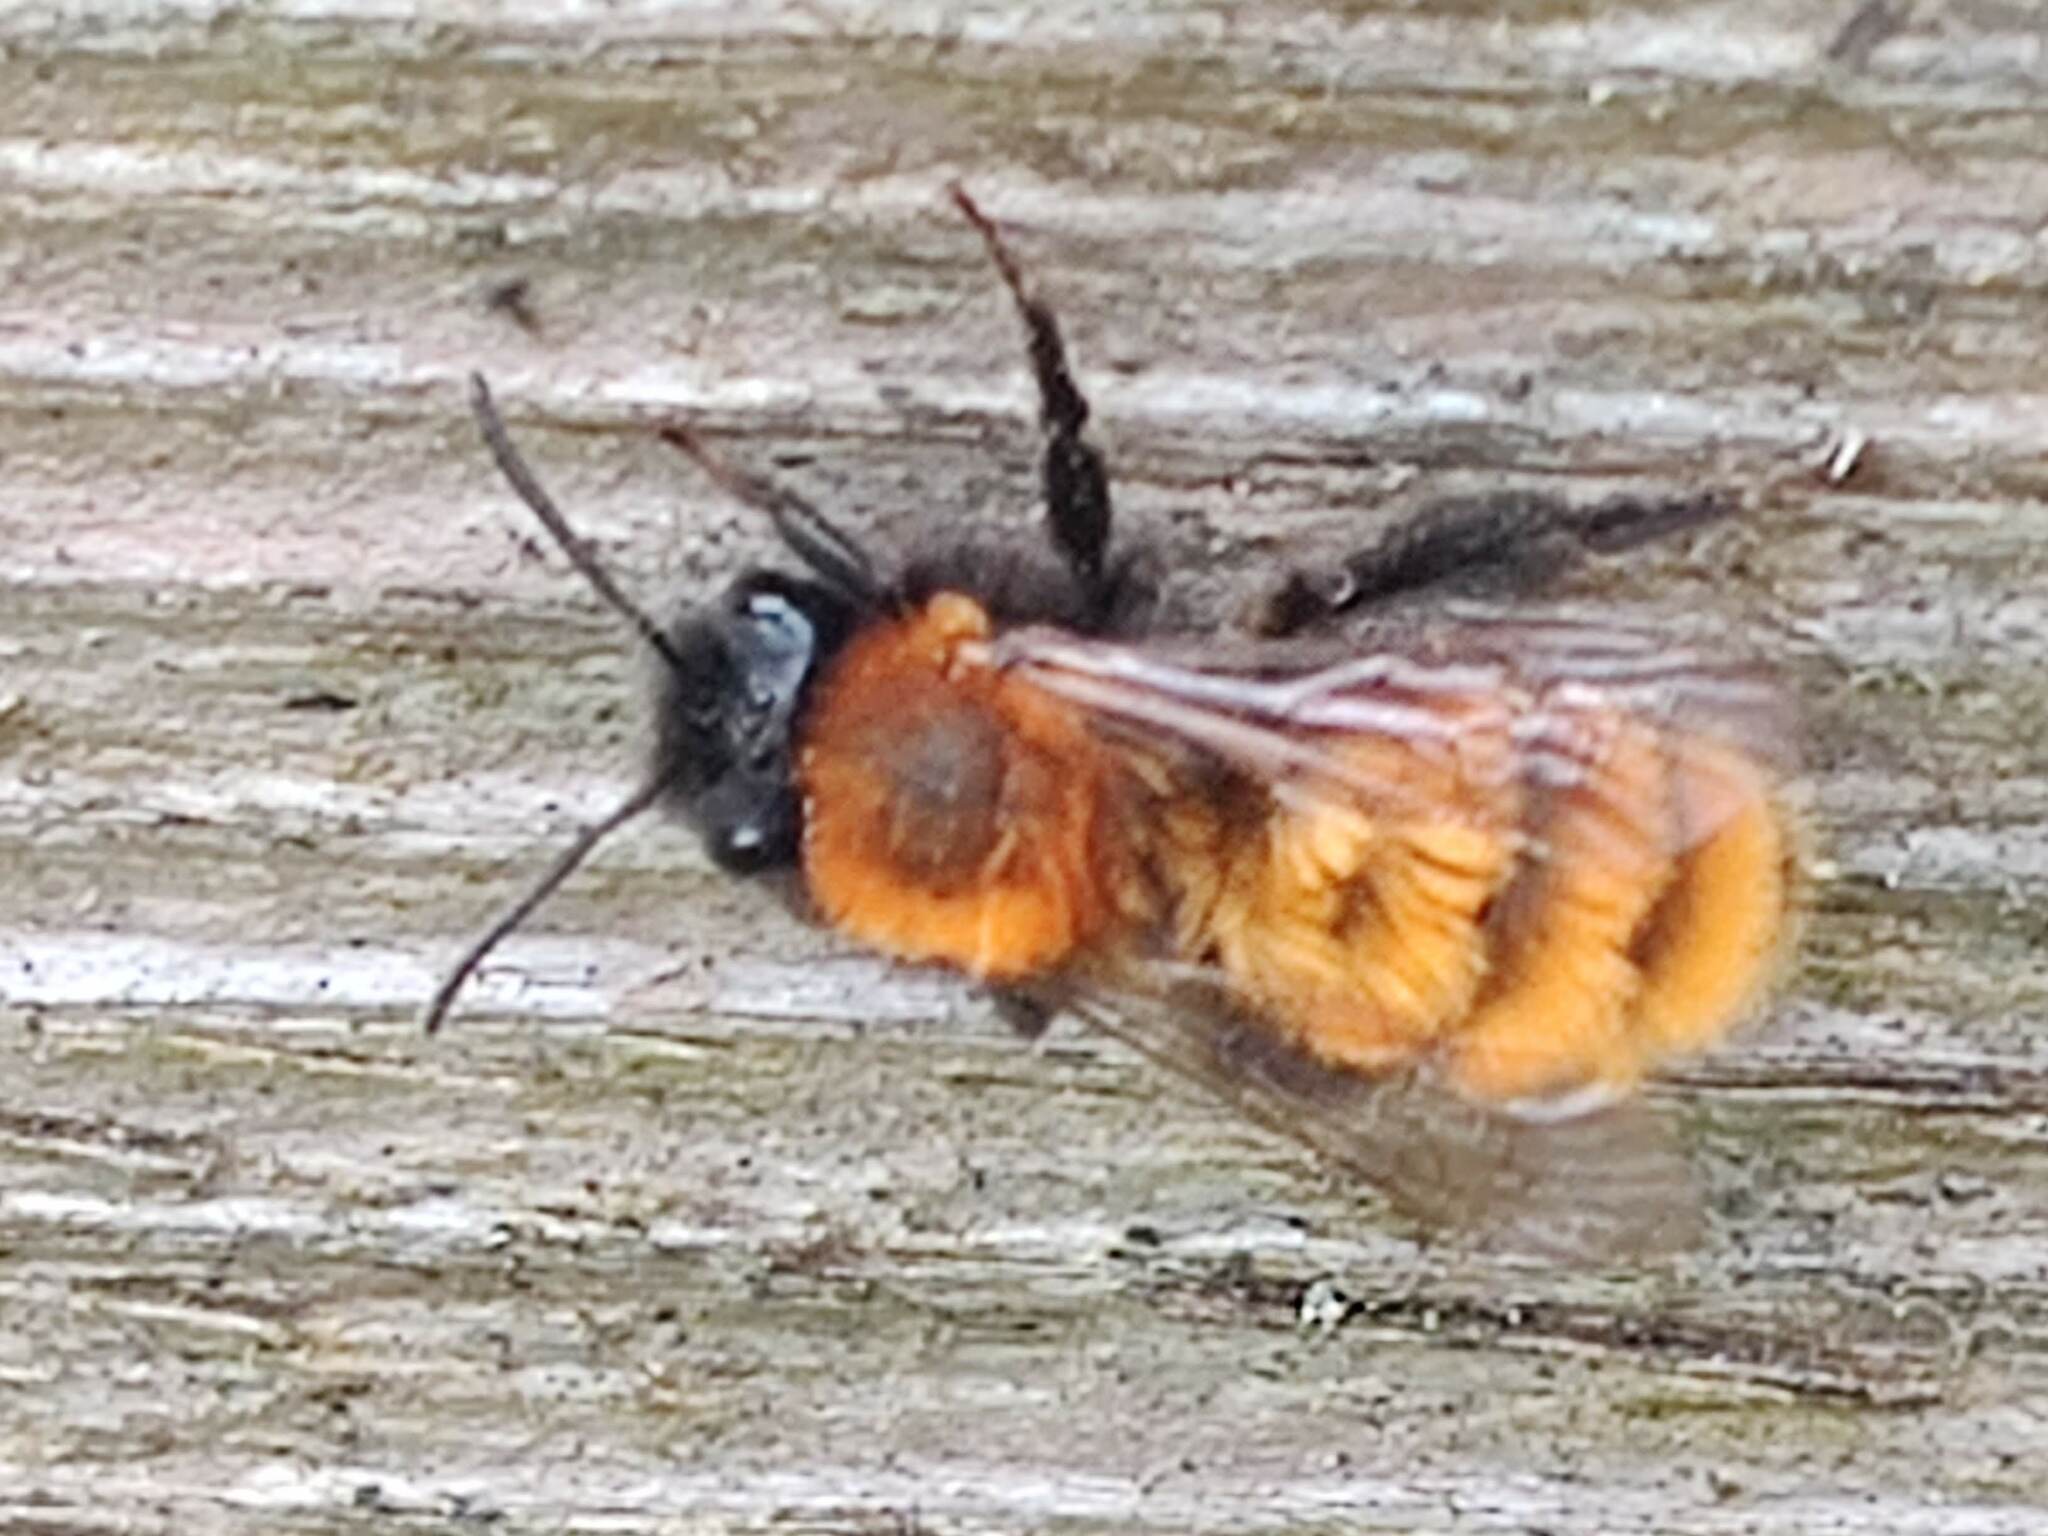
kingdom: Animalia
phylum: Arthropoda
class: Insecta
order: Hymenoptera
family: Andrenidae
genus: Andrena
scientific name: Andrena fulva
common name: Tawny mining bee
